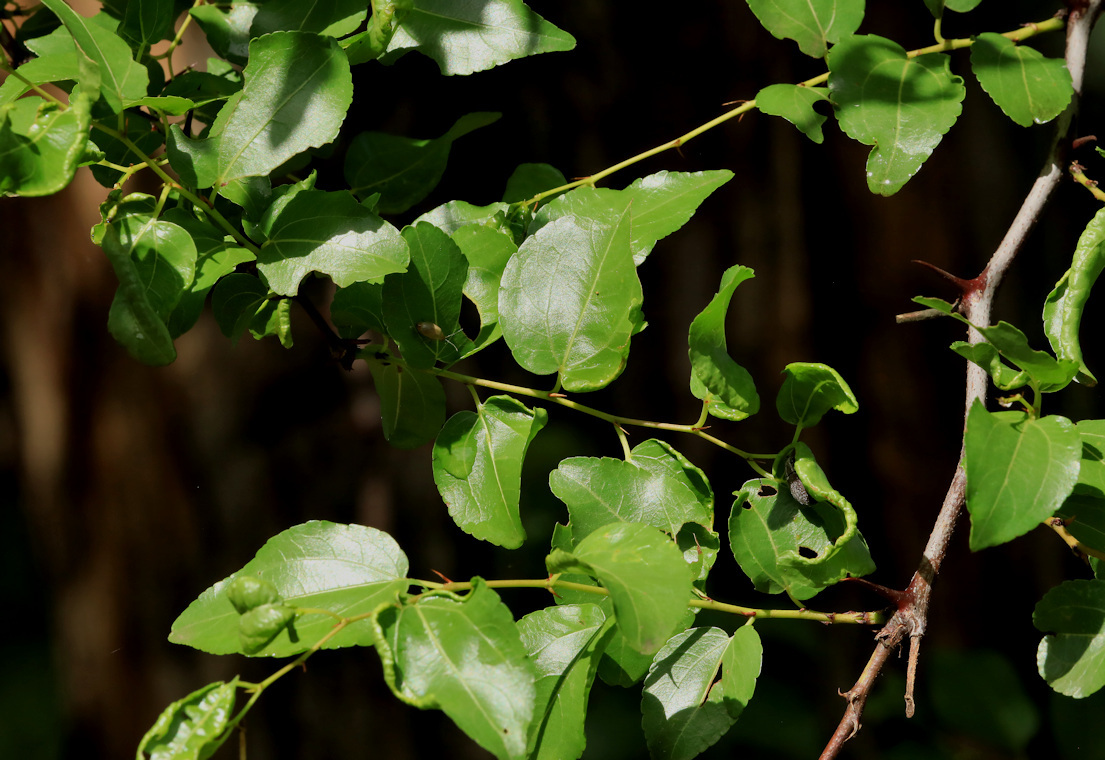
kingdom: Plantae
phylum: Tracheophyta
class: Magnoliopsida
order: Rosales
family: Rhamnaceae
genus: Ziziphus
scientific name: Ziziphus mucronata
